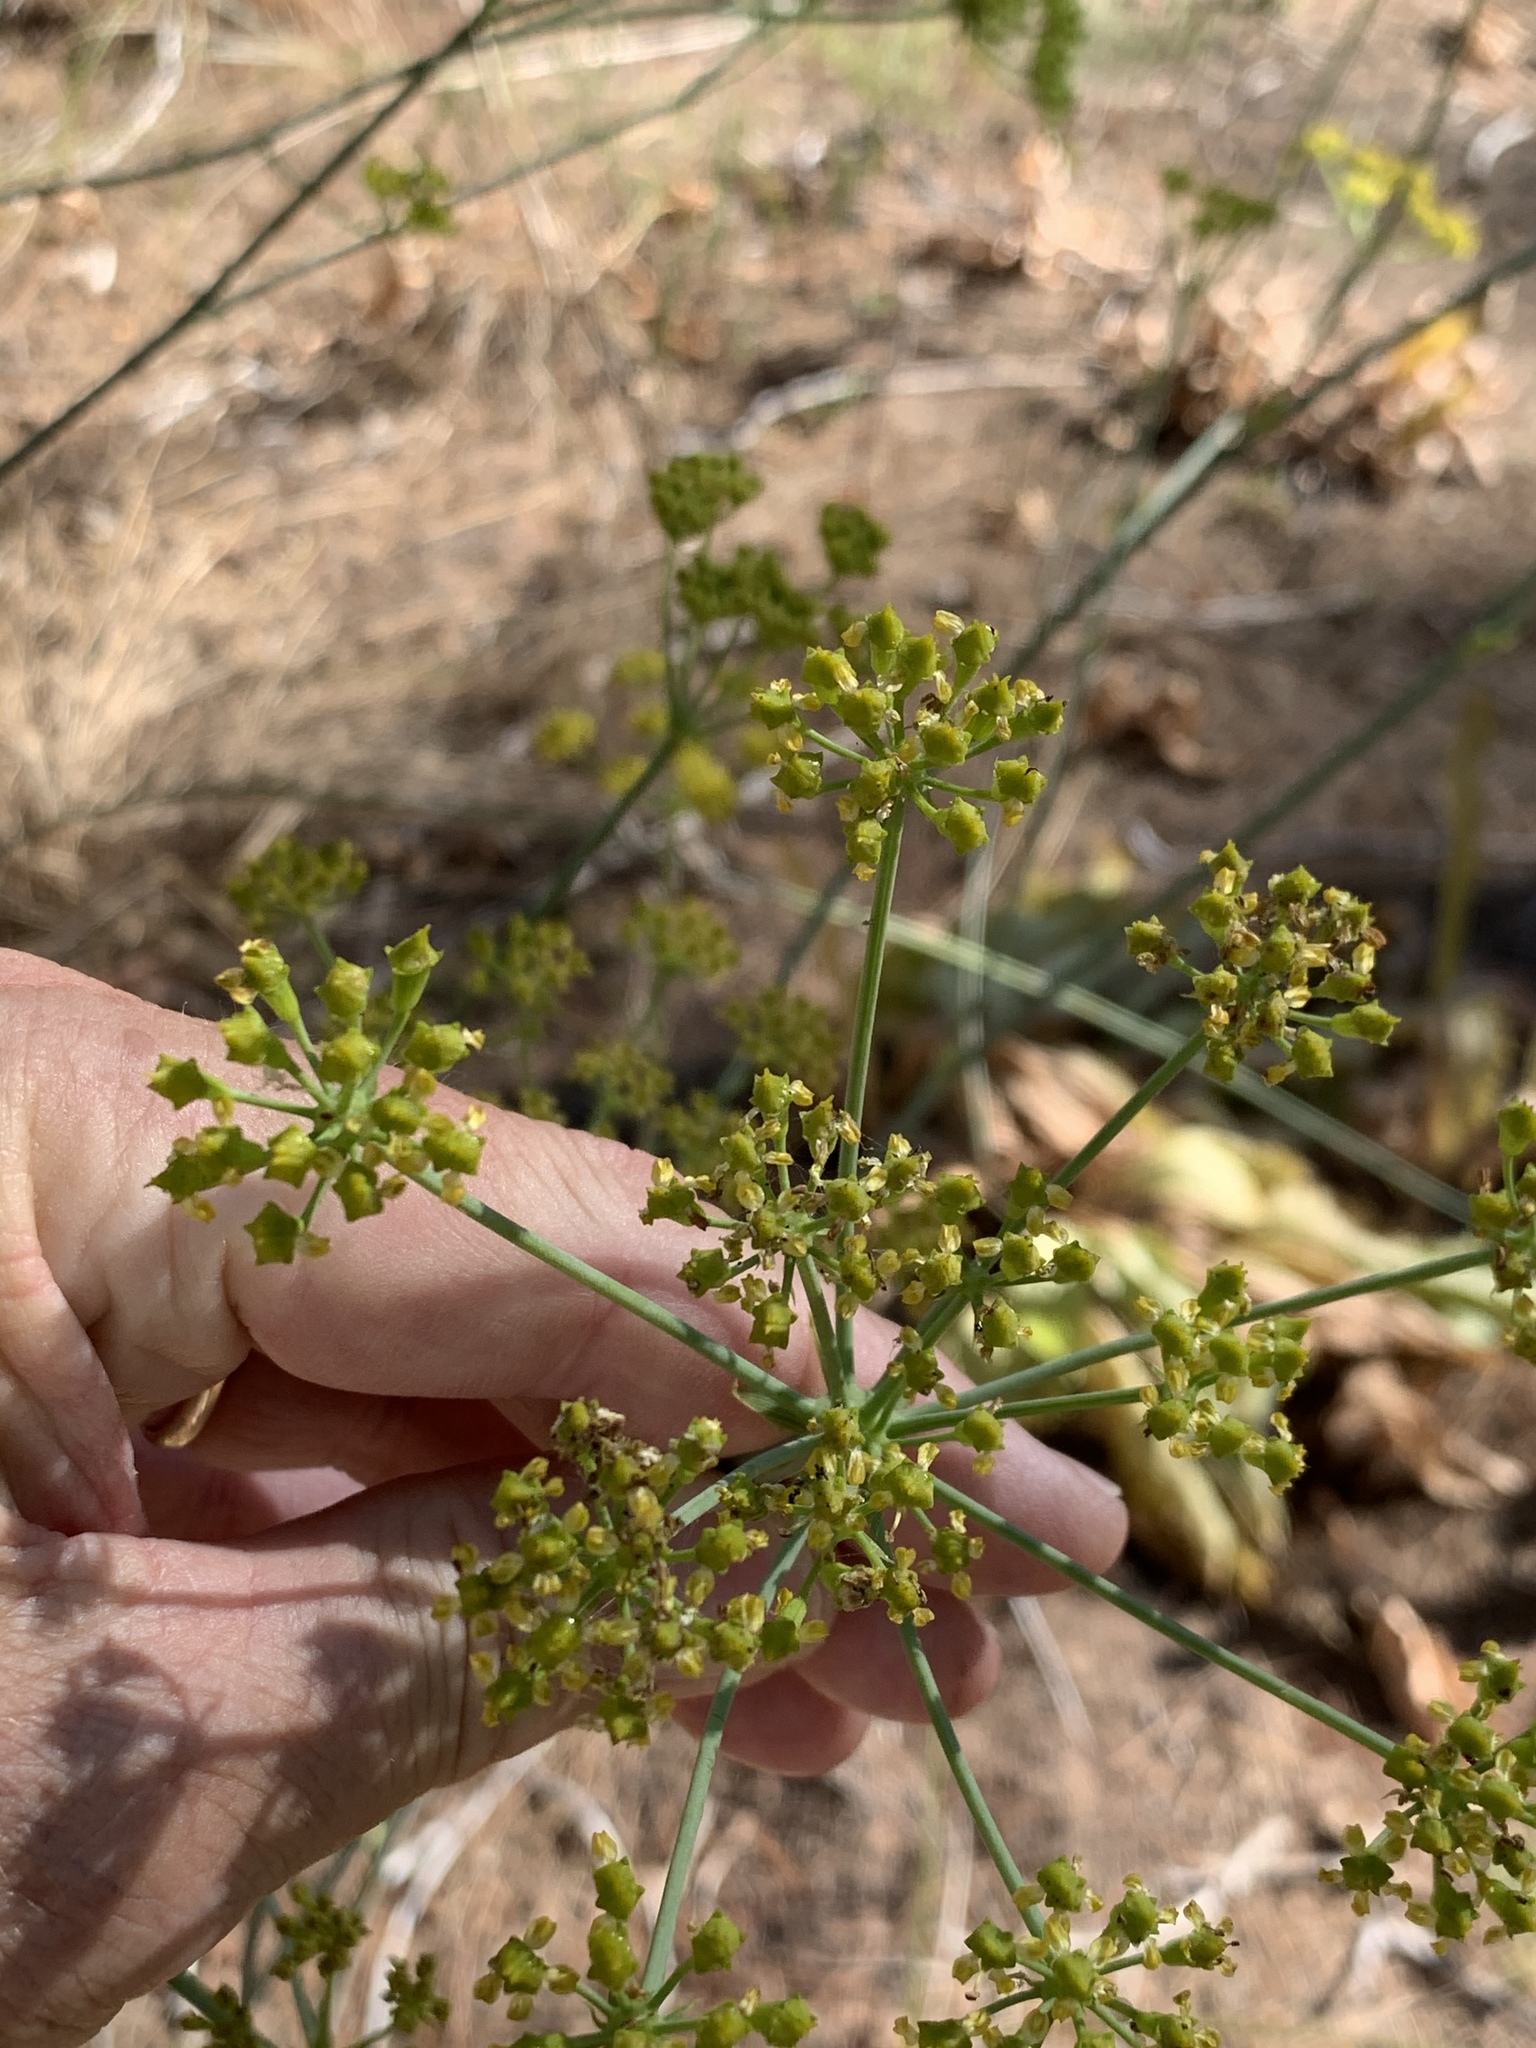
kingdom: Plantae
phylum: Tracheophyta
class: Magnoliopsida
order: Apiales
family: Apiaceae
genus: Lichtensteinia
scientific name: Lichtensteinia lacera
